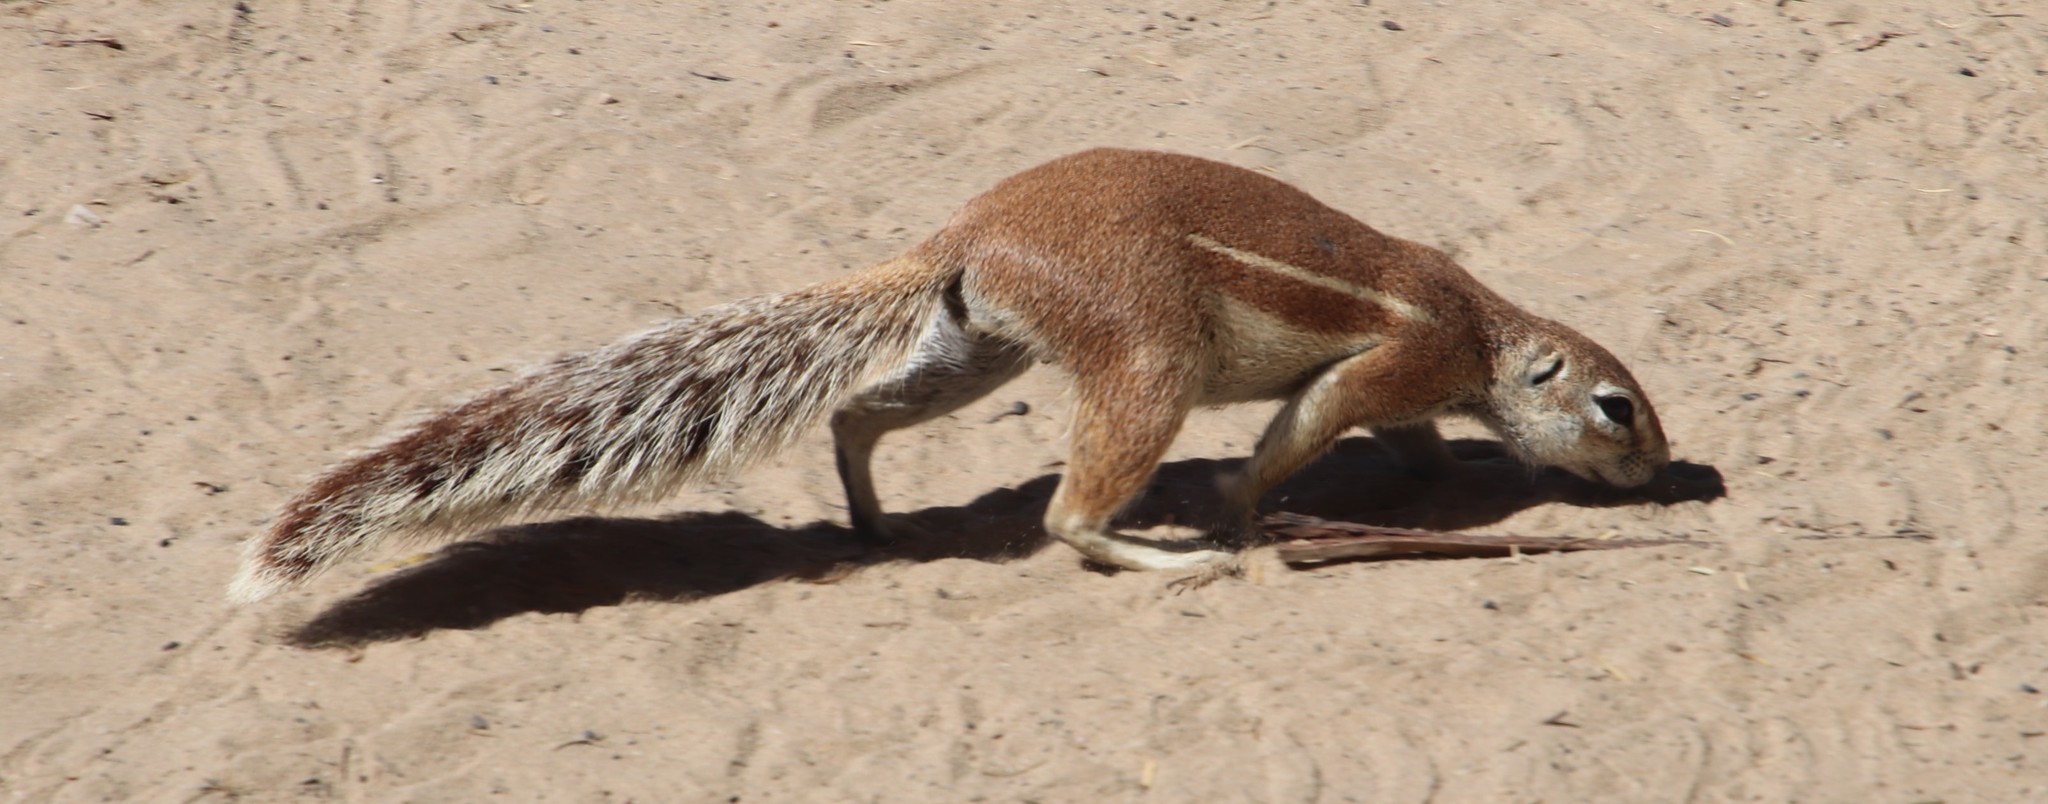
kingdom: Animalia
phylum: Chordata
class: Mammalia
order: Rodentia
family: Sciuridae
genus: Xerus
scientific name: Xerus inauris
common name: South african ground squirrel
